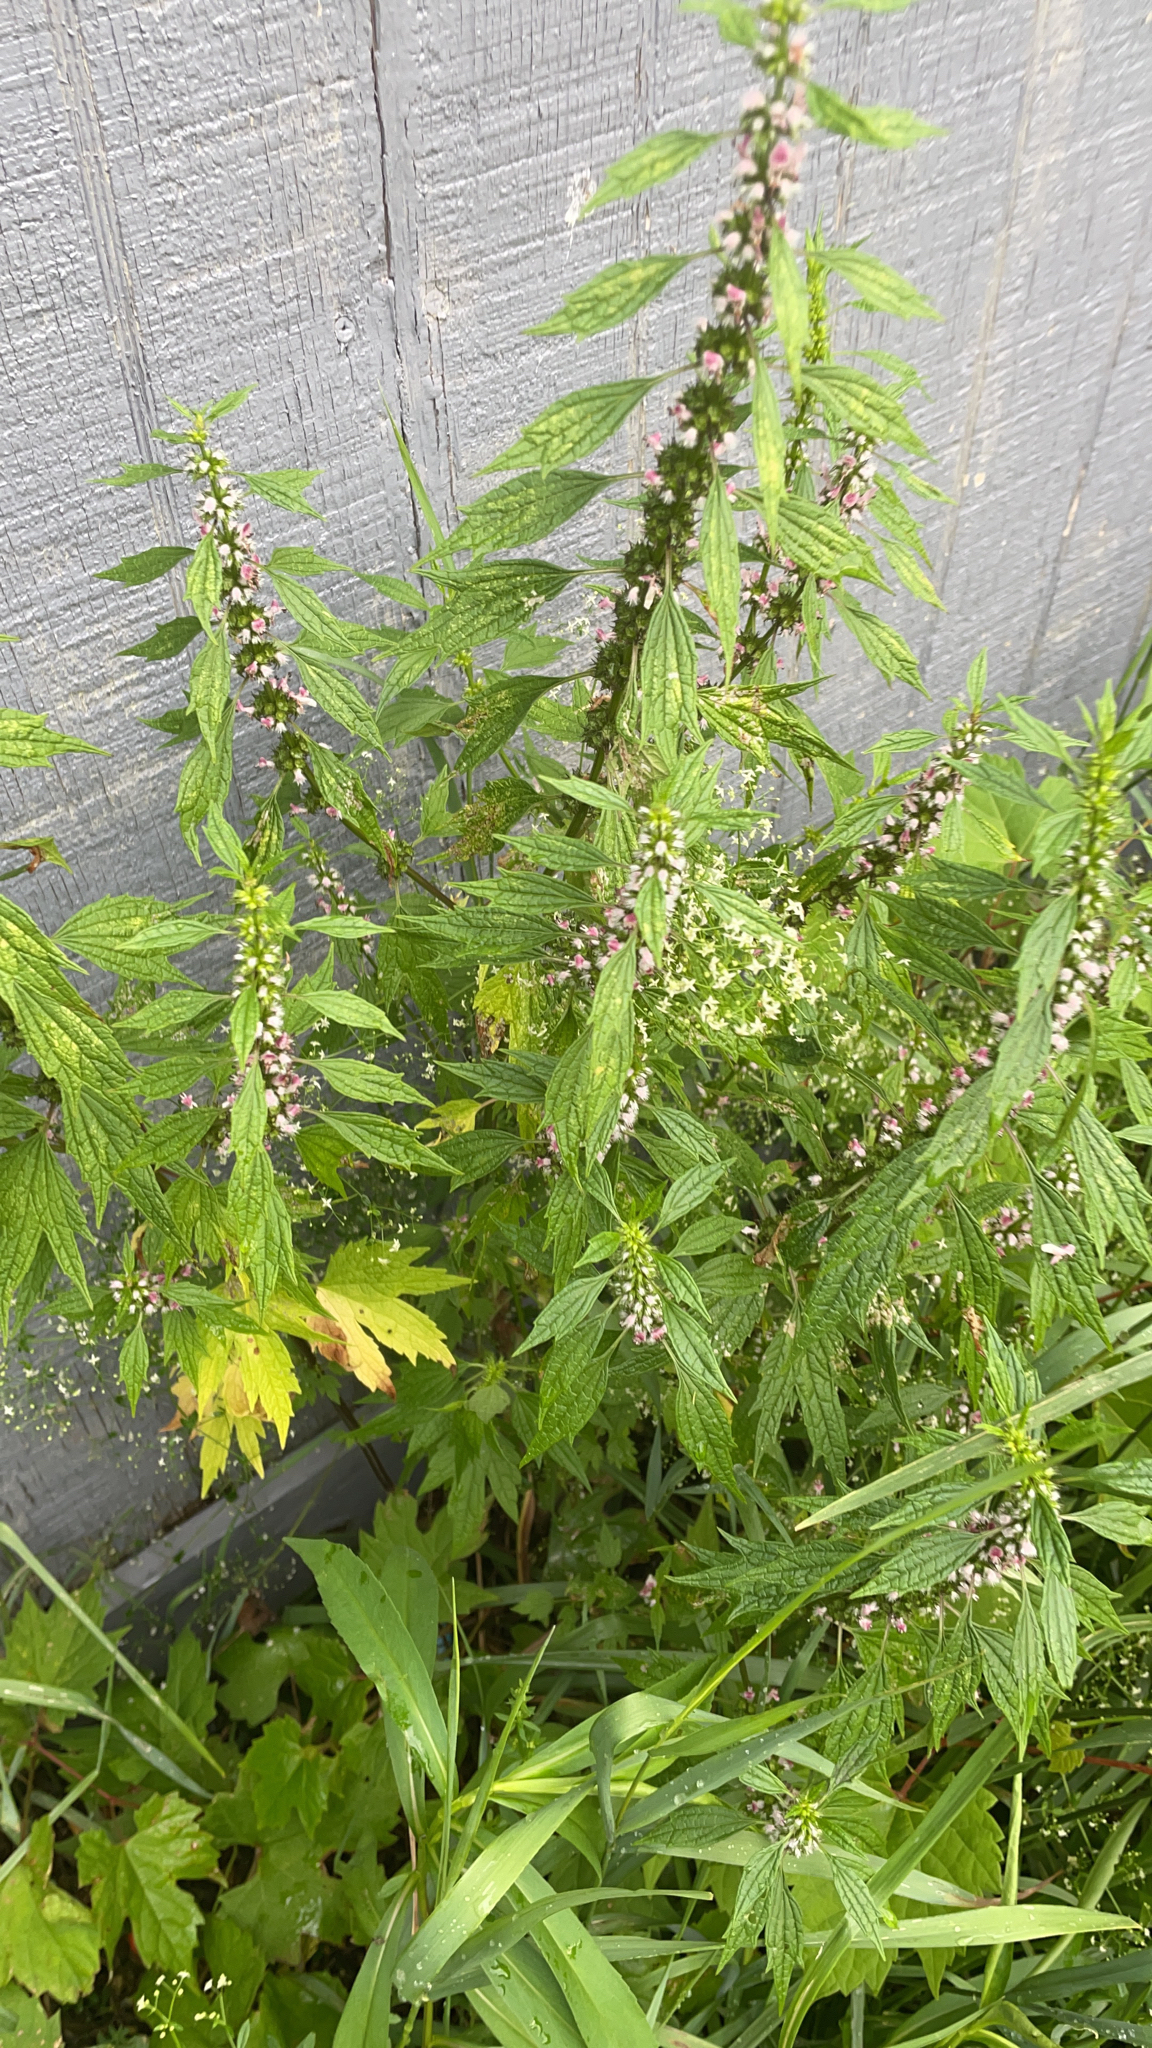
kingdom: Plantae
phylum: Tracheophyta
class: Magnoliopsida
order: Lamiales
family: Lamiaceae
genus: Leonurus
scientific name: Leonurus cardiaca
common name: Motherwort
